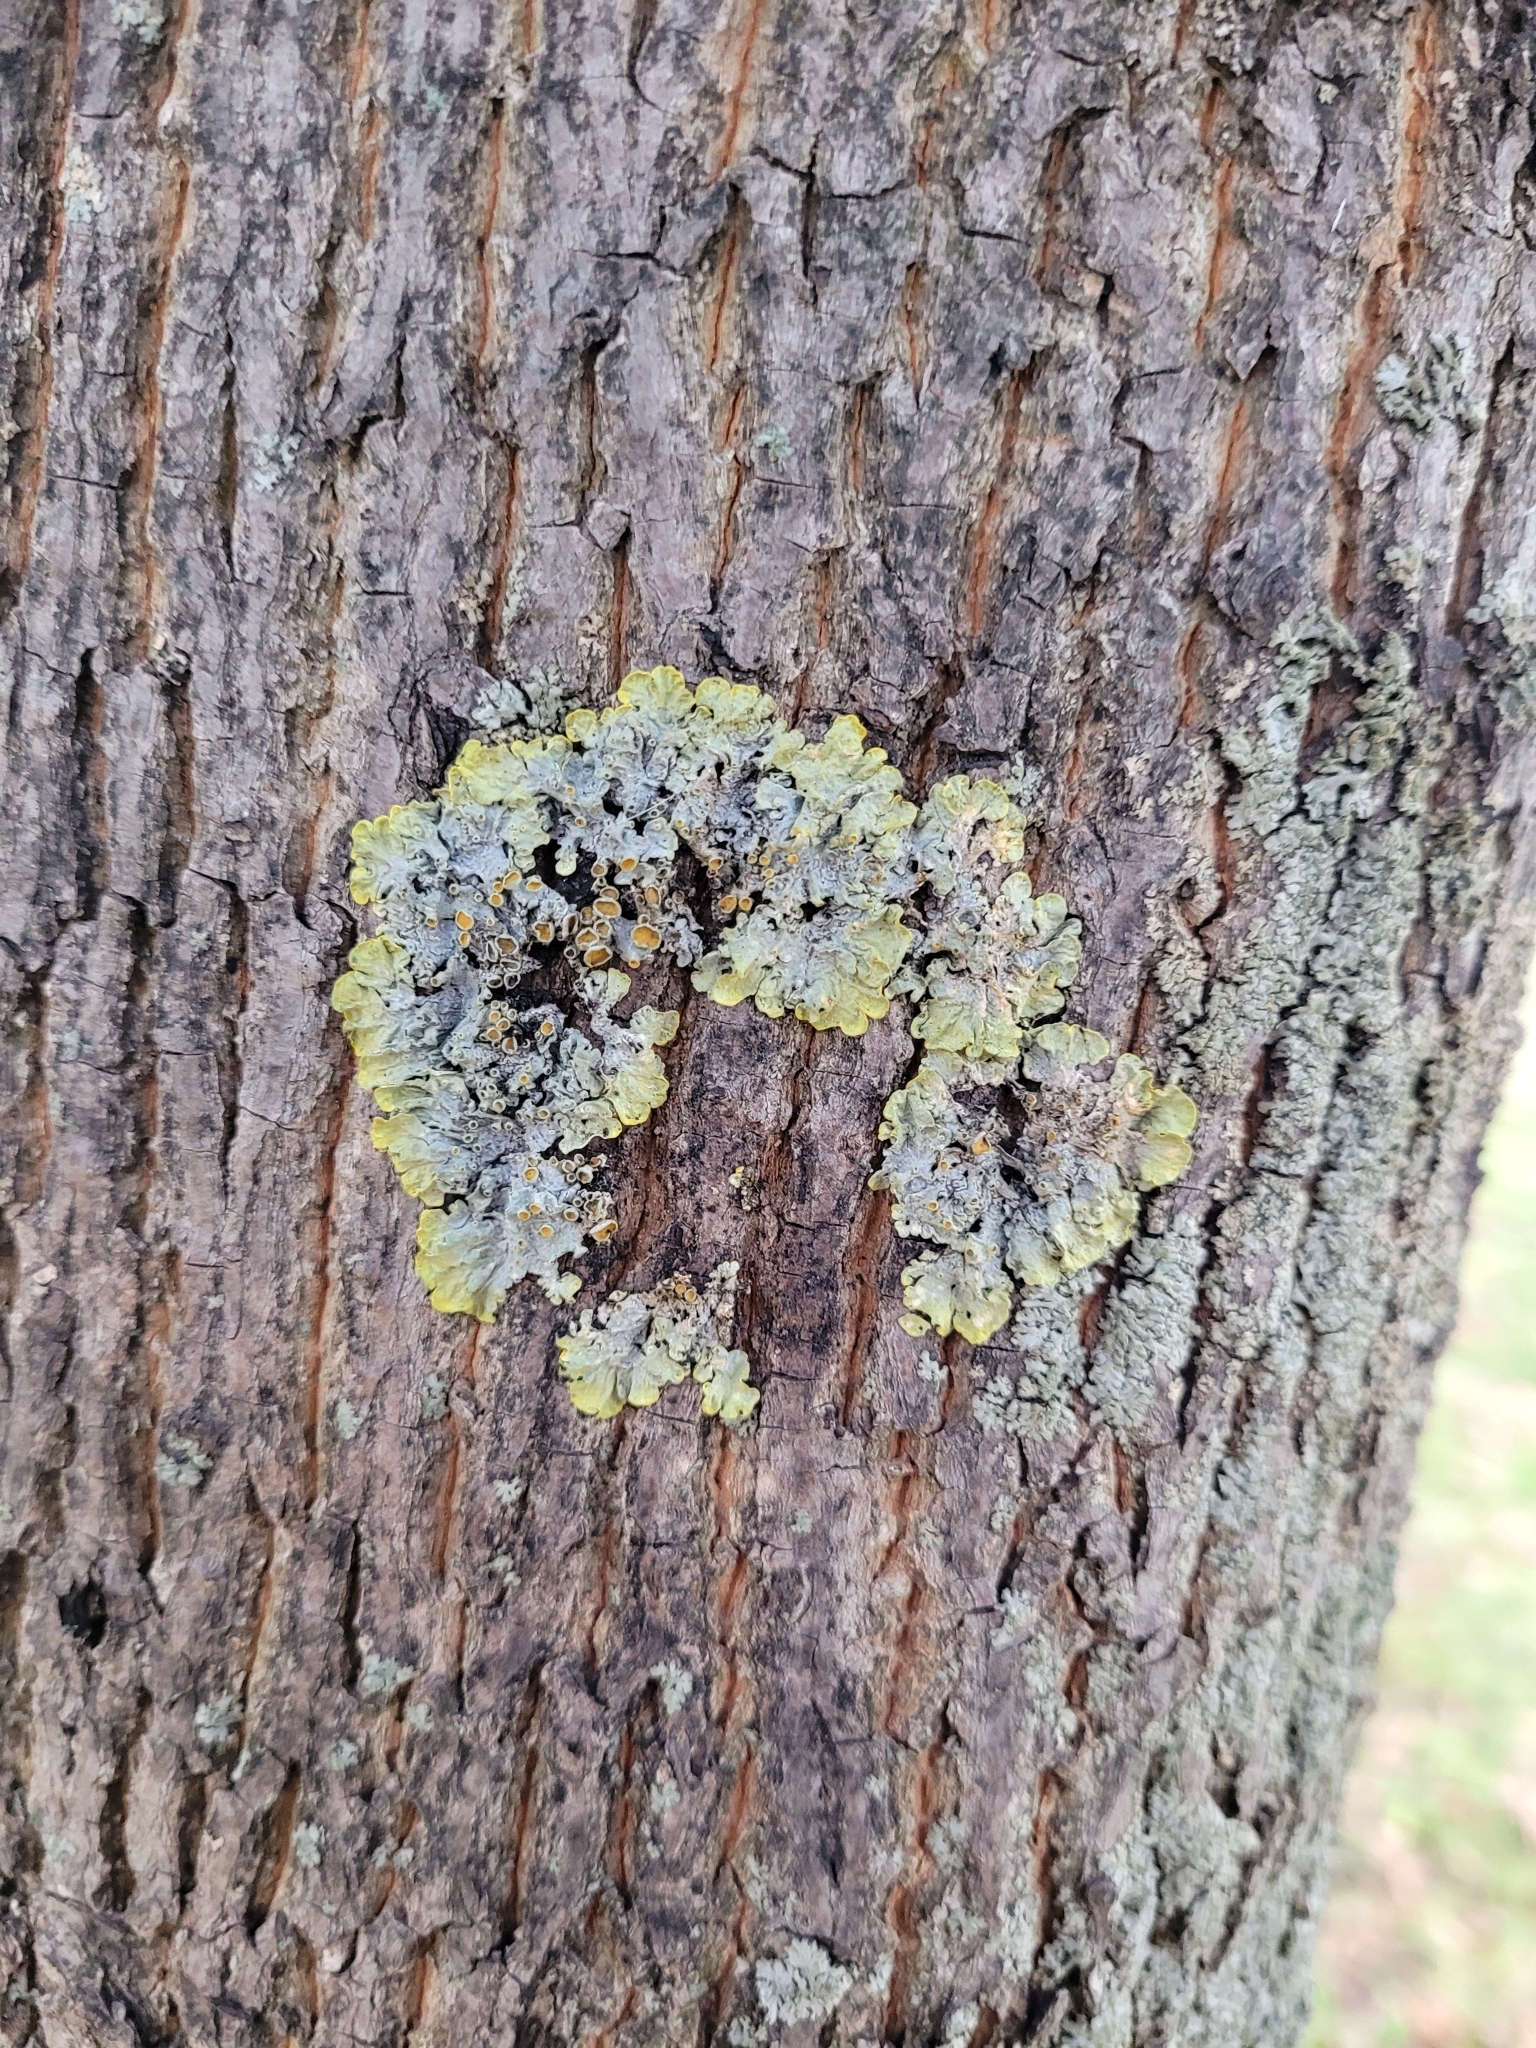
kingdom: Fungi
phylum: Ascomycota
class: Lecanoromycetes
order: Teloschistales
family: Teloschistaceae
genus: Xanthoria
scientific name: Xanthoria parietina
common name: Common orange lichen
